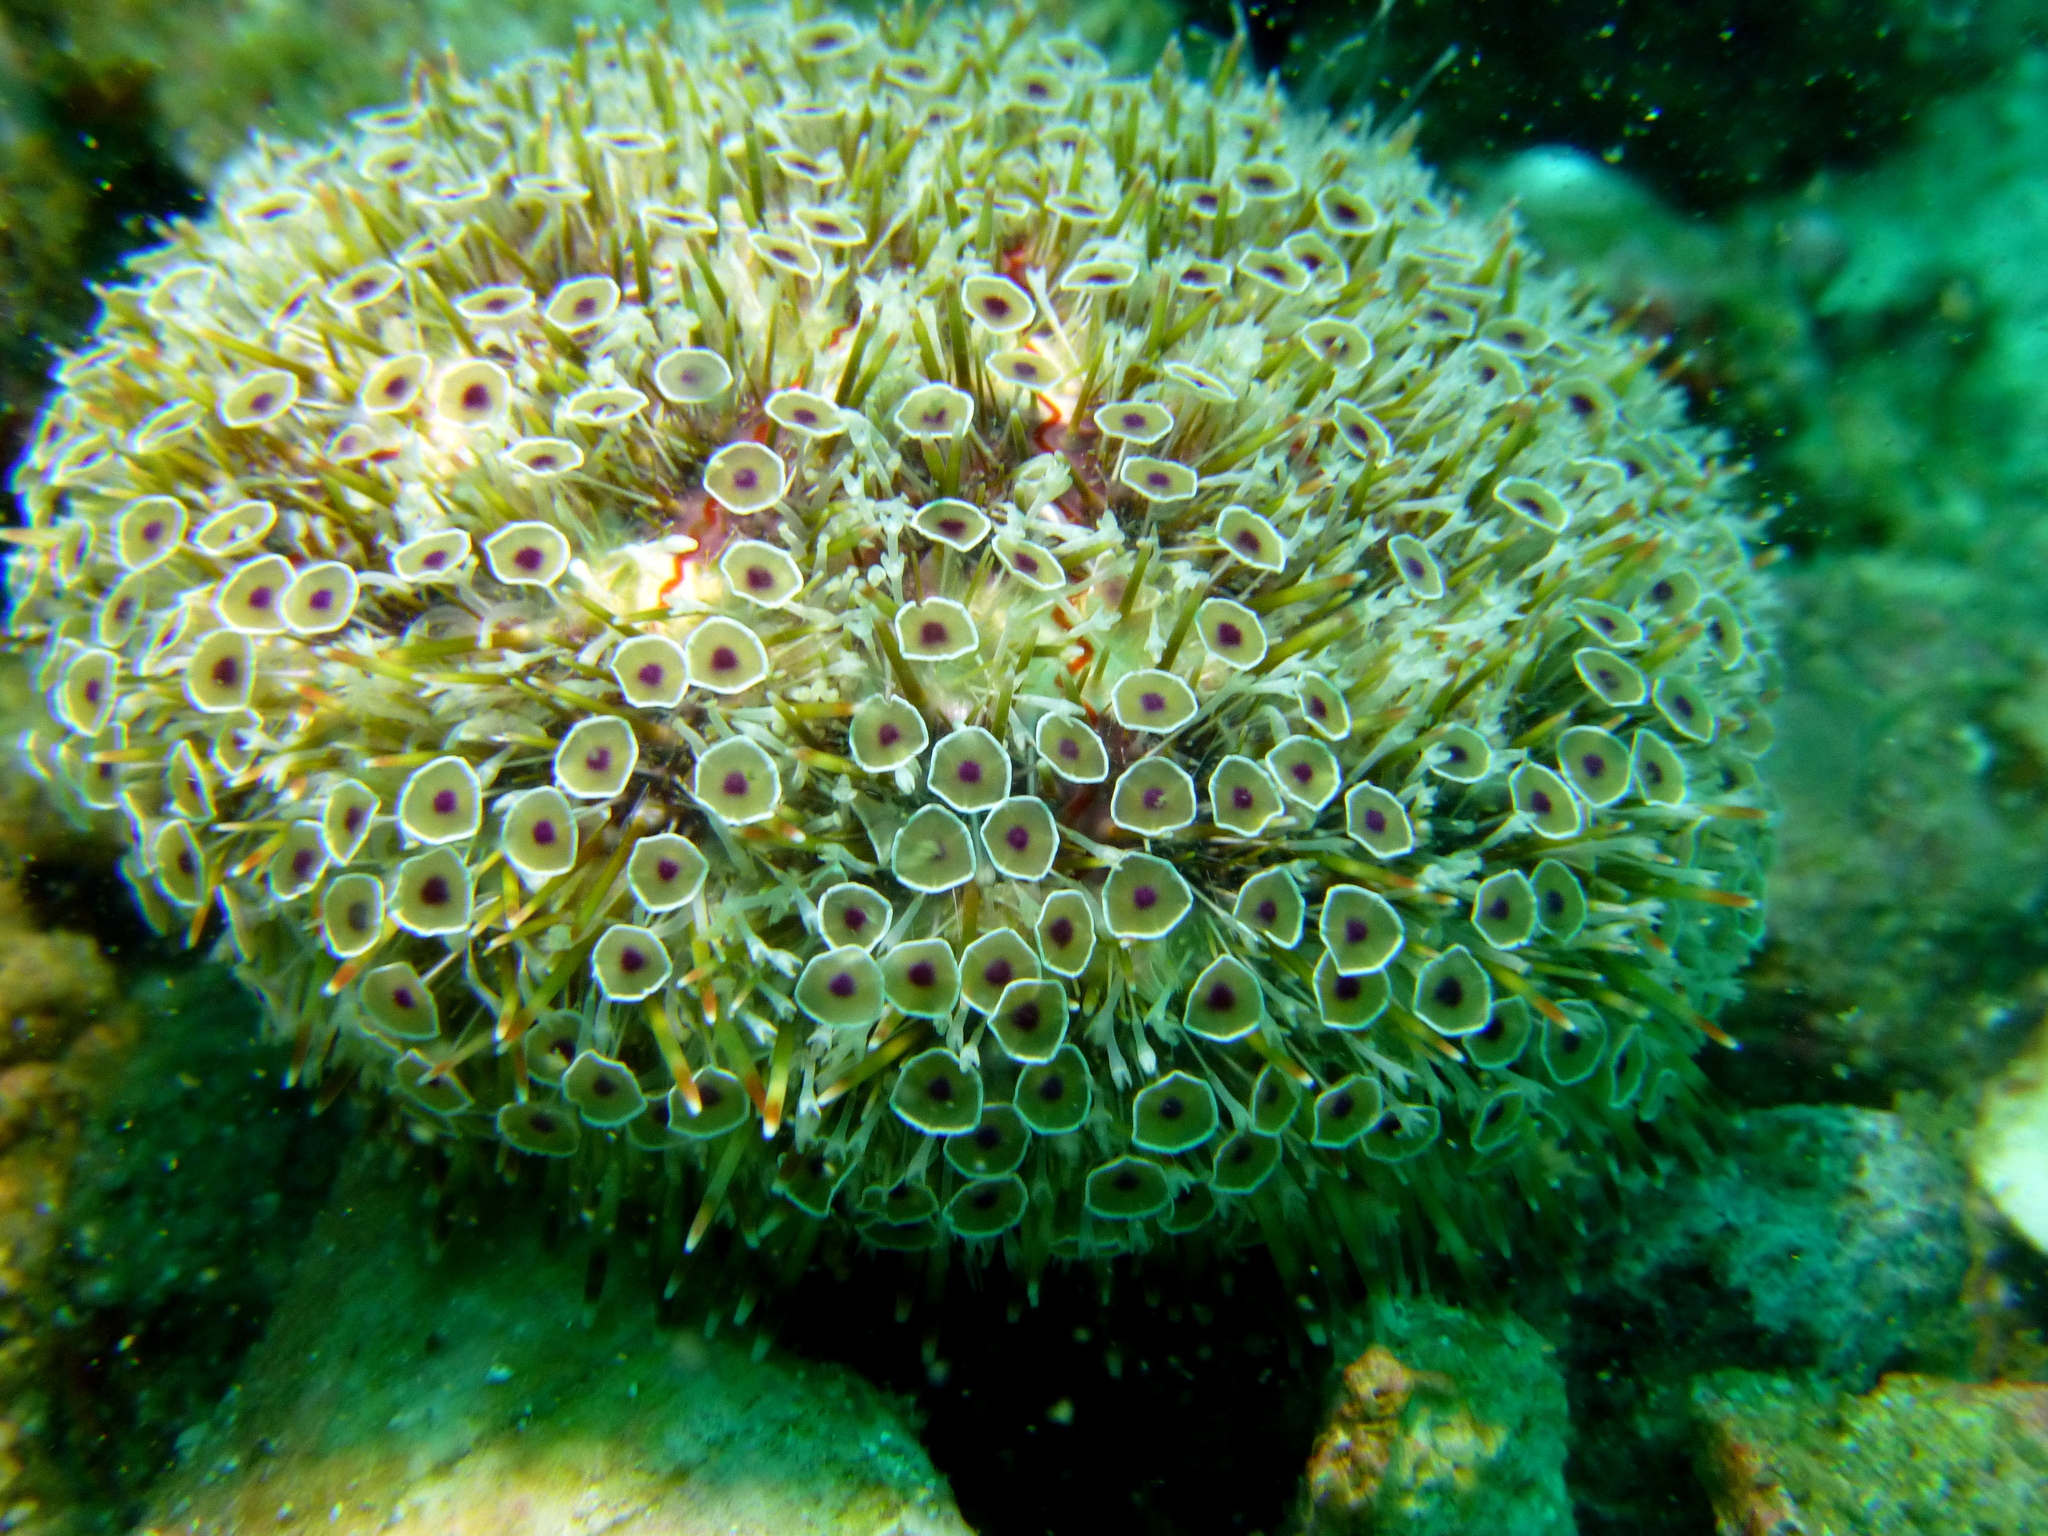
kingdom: Animalia
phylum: Echinodermata
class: Echinoidea
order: Camarodonta
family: Toxopneustidae
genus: Toxopneustes
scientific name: Toxopneustes pileolus
